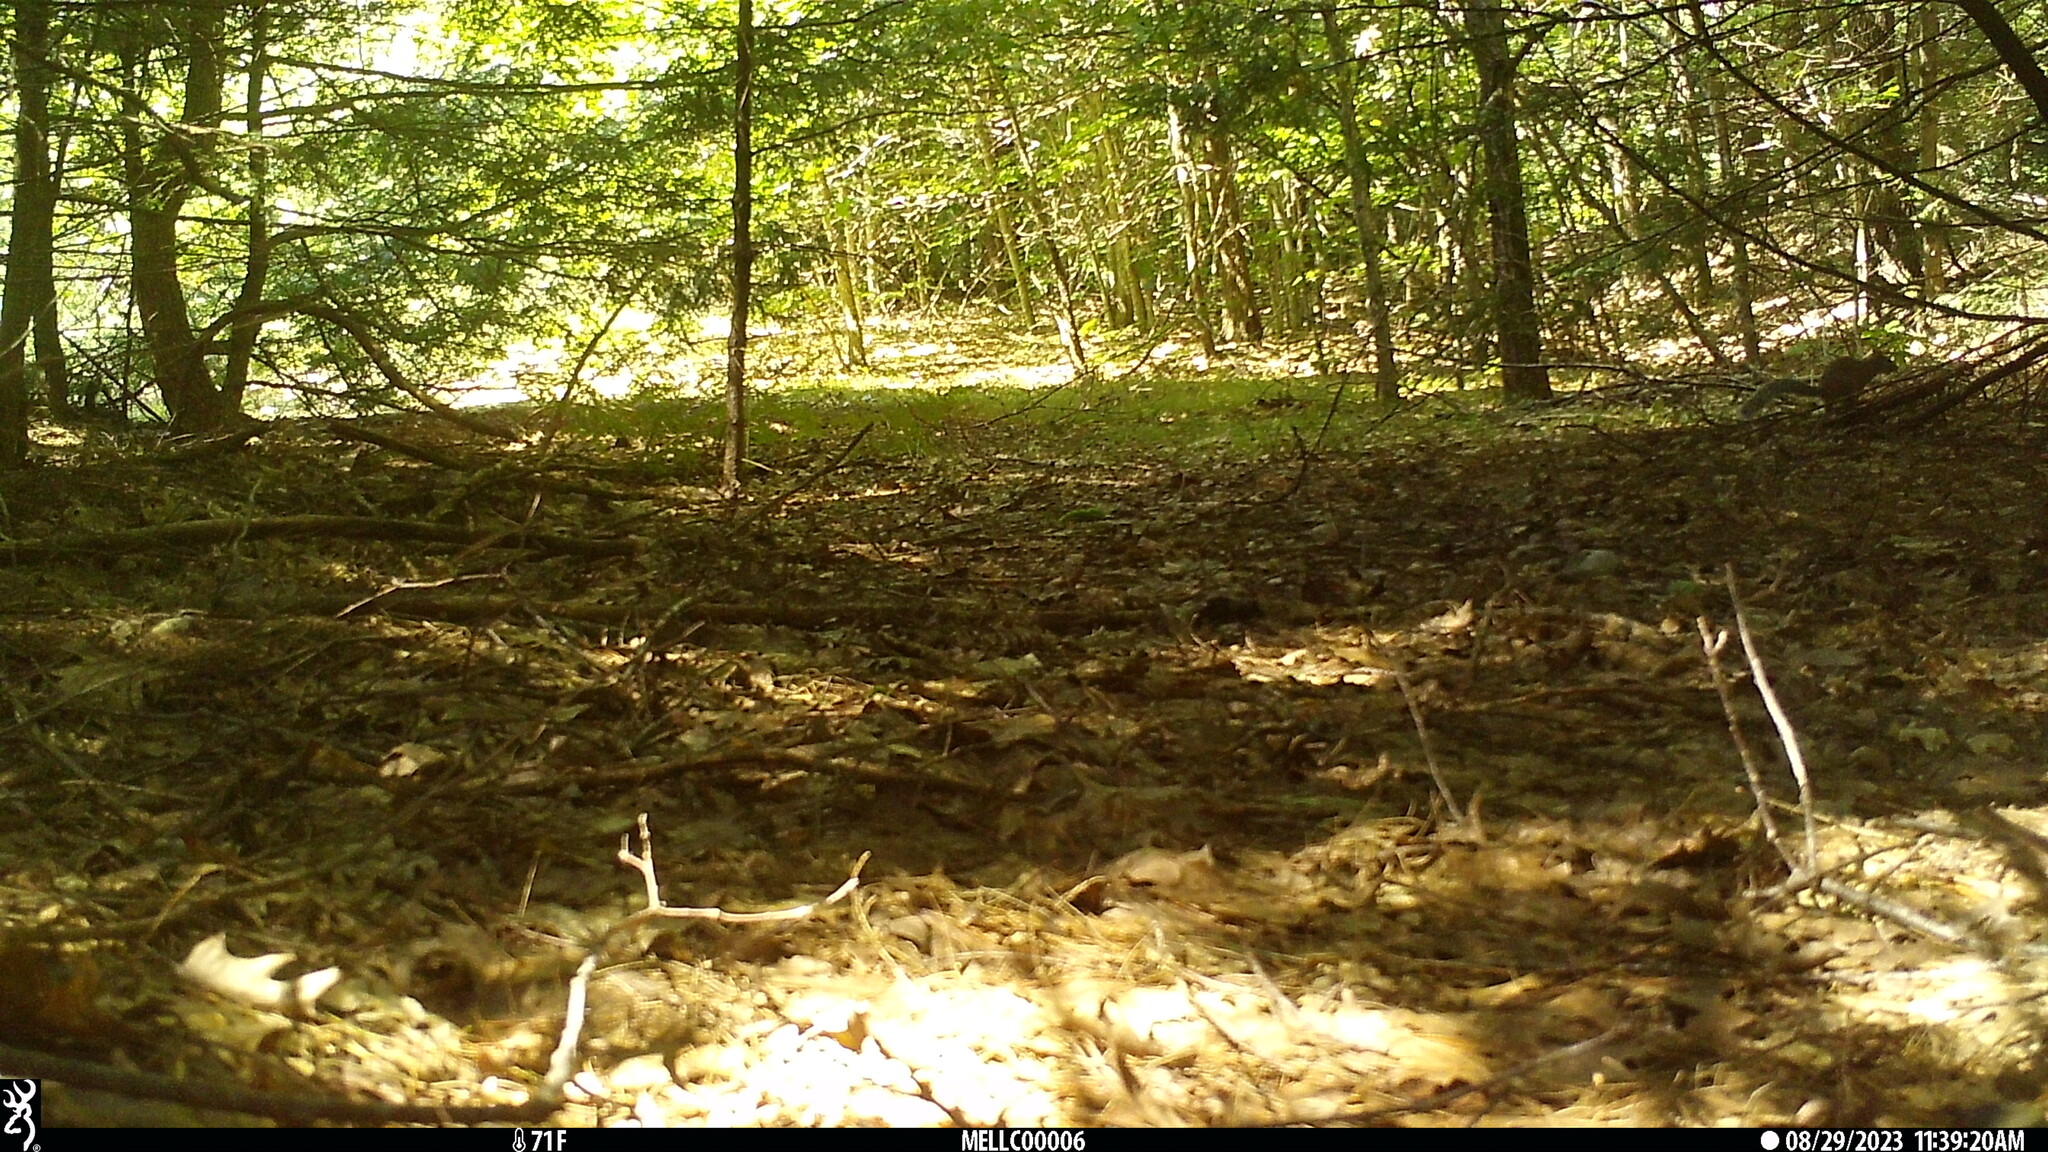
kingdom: Animalia
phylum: Chordata
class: Mammalia
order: Rodentia
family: Sciuridae
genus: Sciurus
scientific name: Sciurus carolinensis
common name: Eastern gray squirrel
